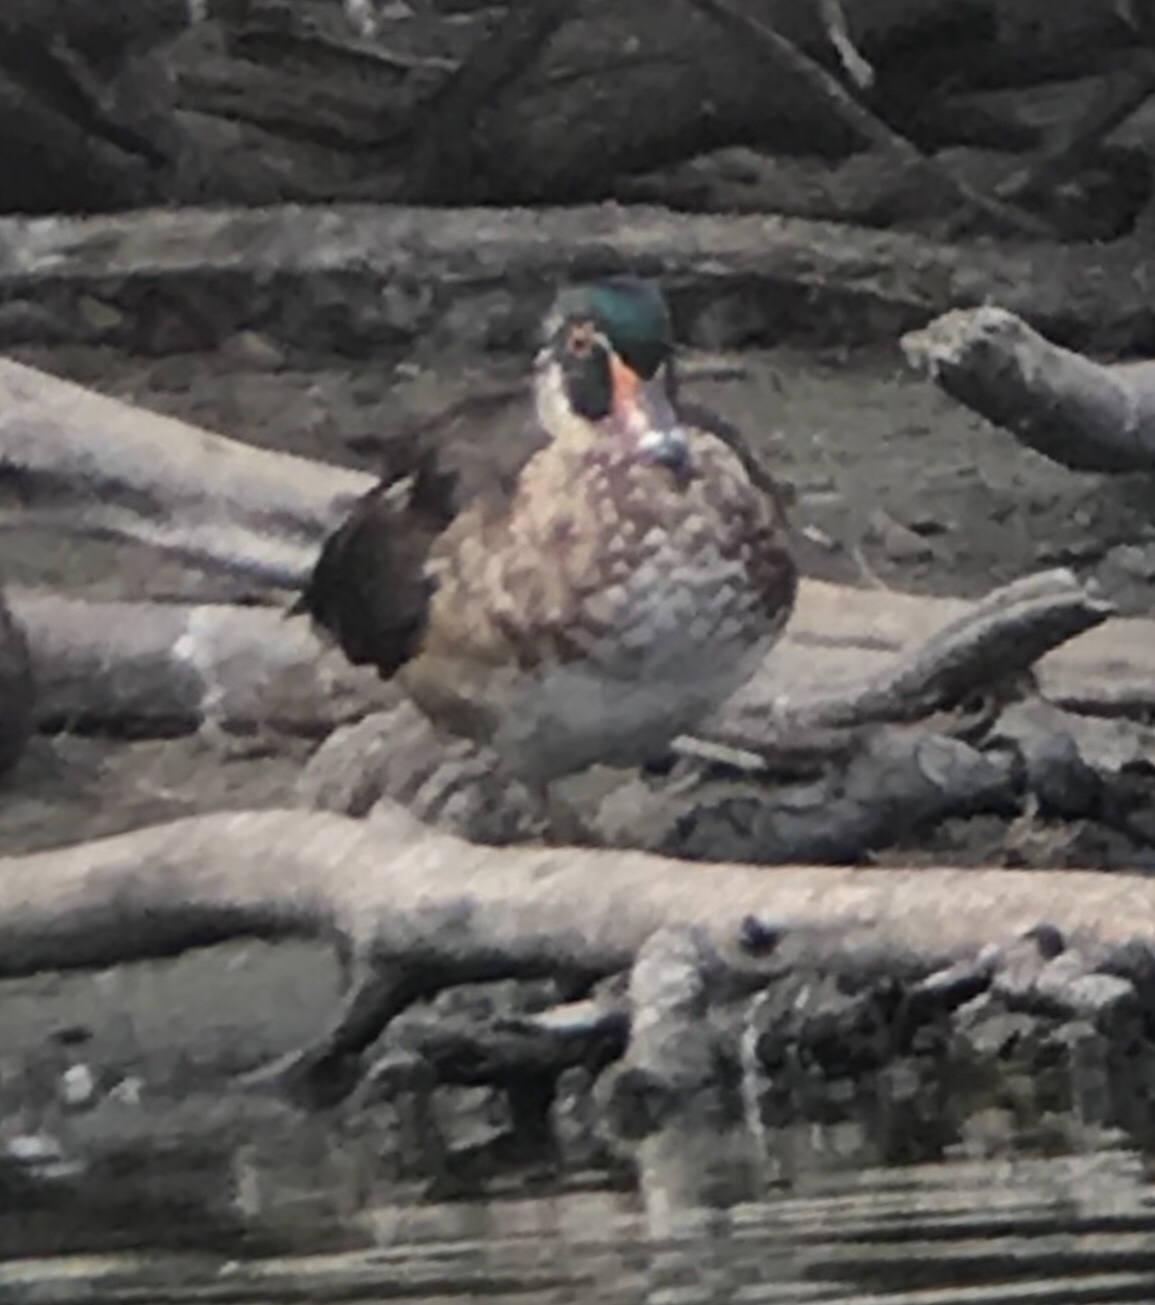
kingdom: Animalia
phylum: Chordata
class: Aves
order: Anseriformes
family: Anatidae
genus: Aix
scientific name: Aix sponsa
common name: Wood duck
